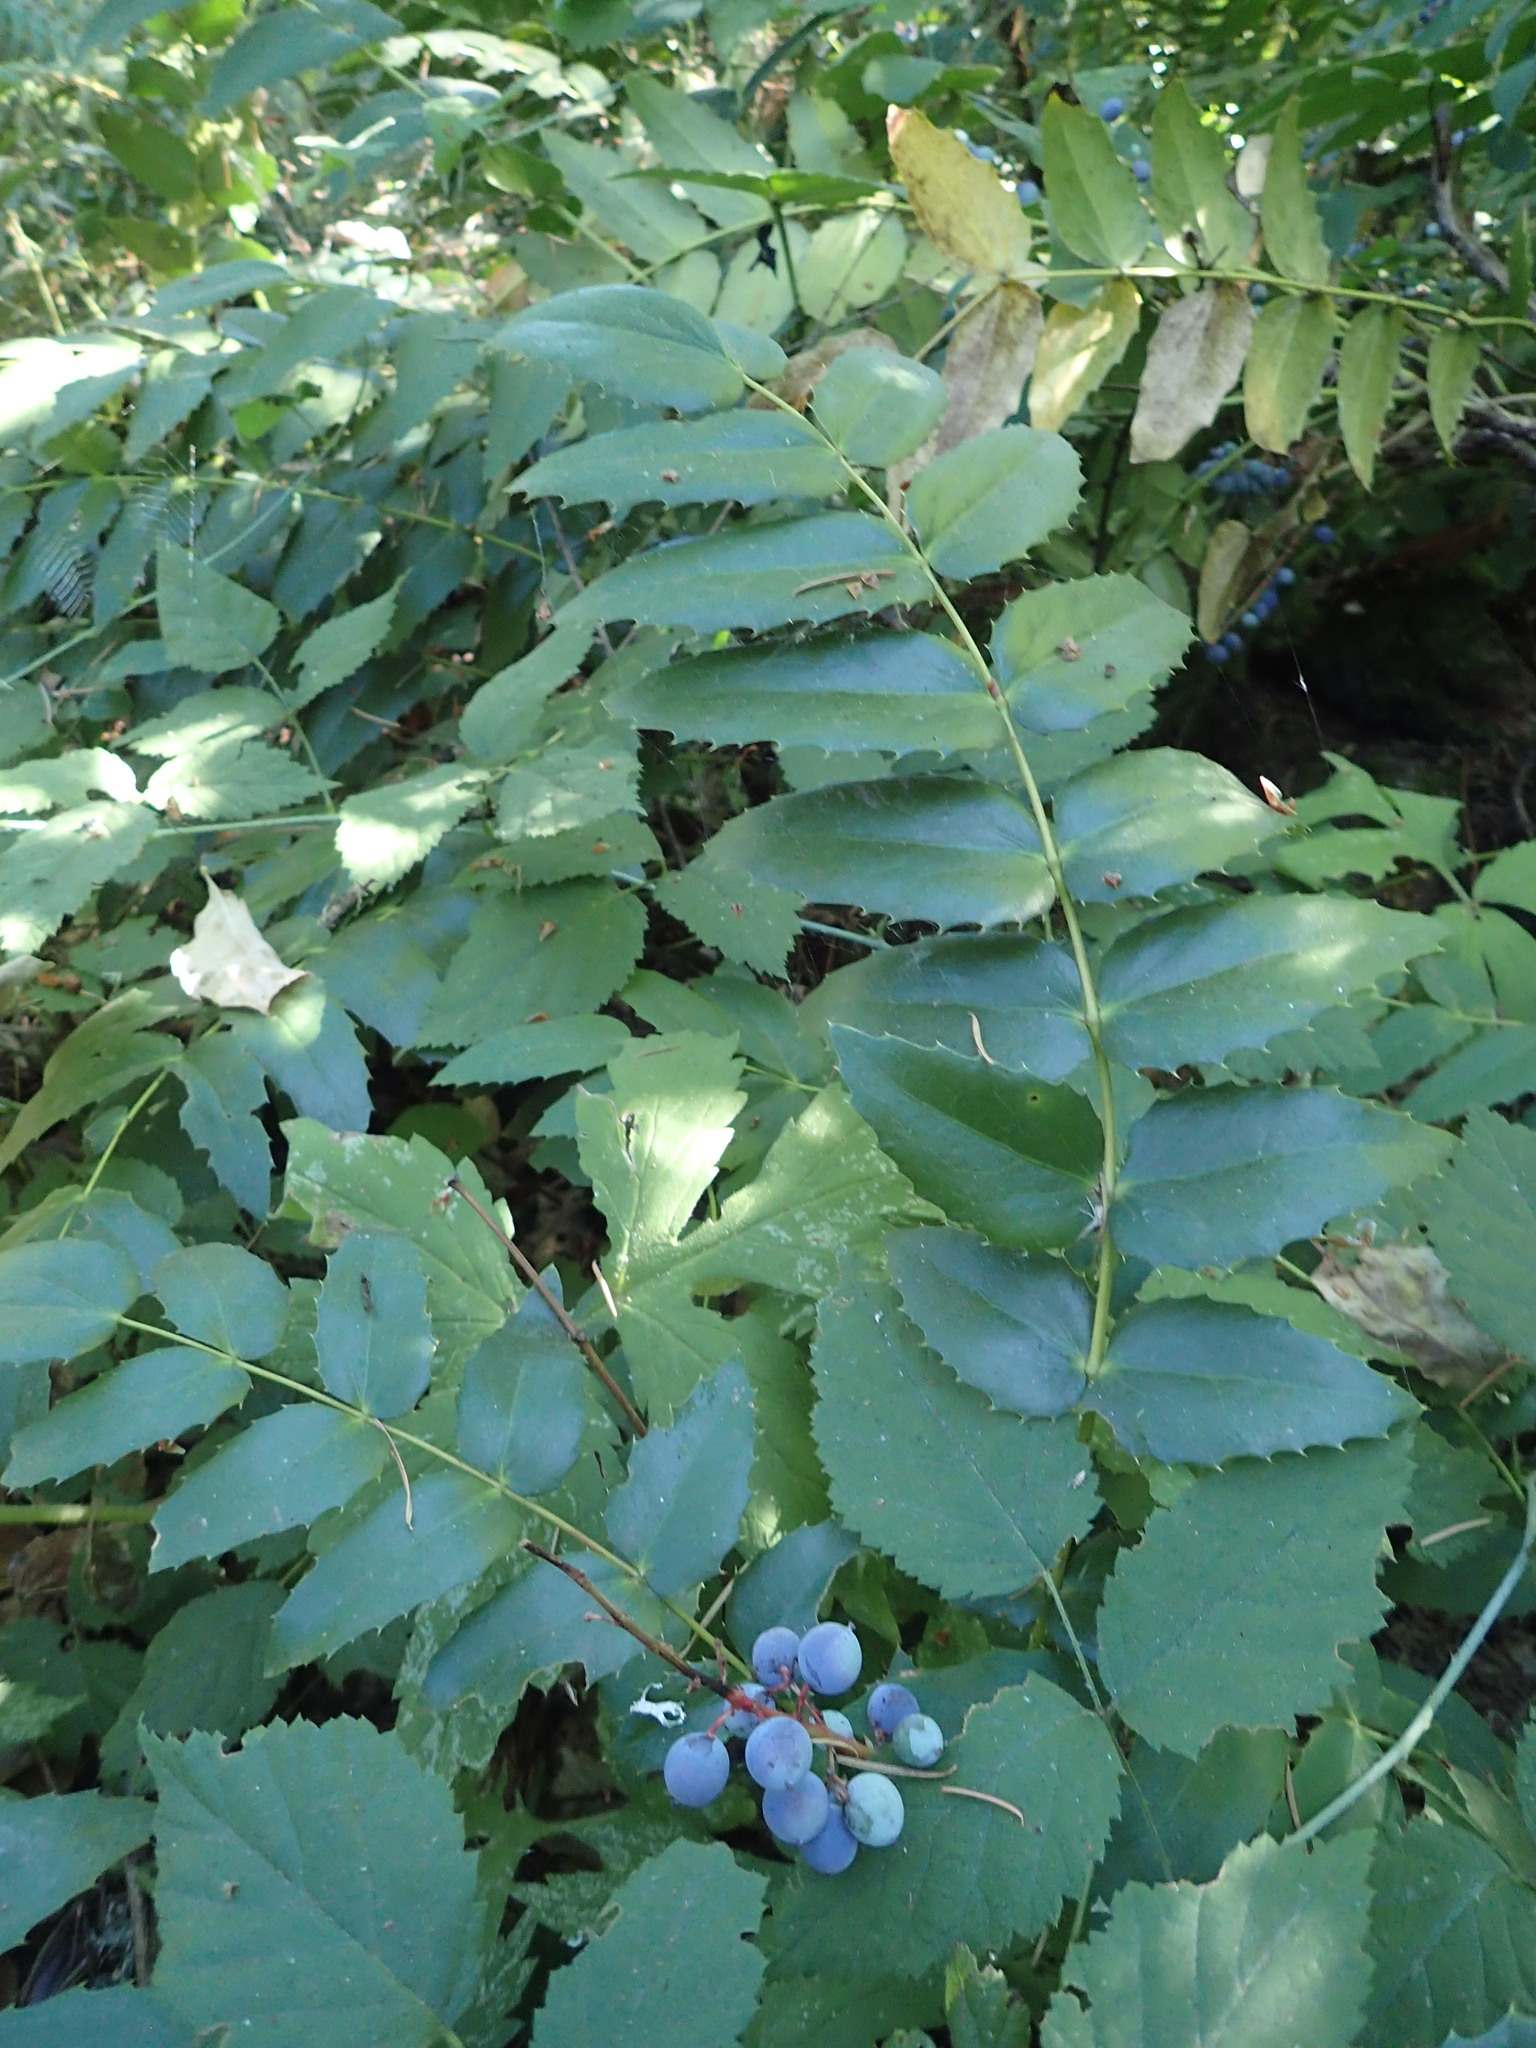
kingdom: Plantae
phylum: Tracheophyta
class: Magnoliopsida
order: Ranunculales
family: Berberidaceae
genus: Mahonia
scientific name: Mahonia nervosa
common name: Cascade oregon-grape
